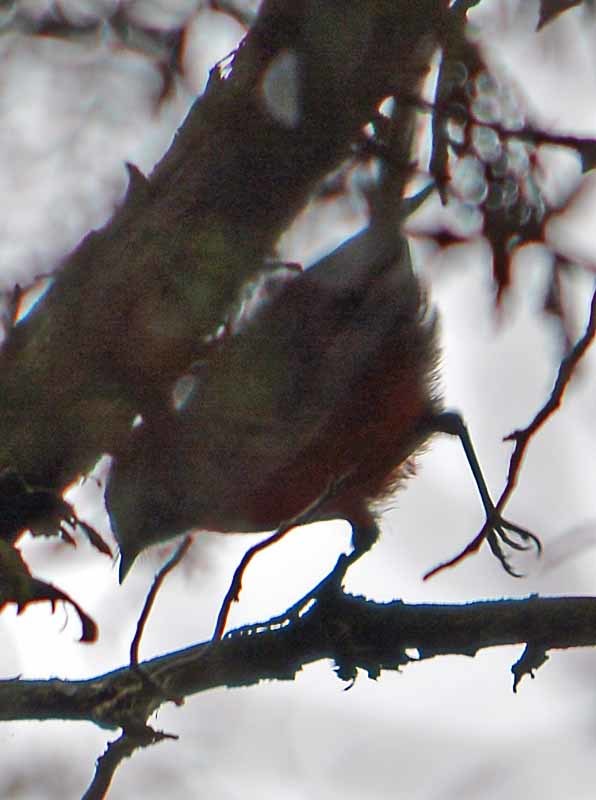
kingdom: Animalia
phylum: Chordata
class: Aves
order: Passeriformes
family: Parulidae
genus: Myioborus
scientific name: Myioborus miniatus
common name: Slate-throated redstart
